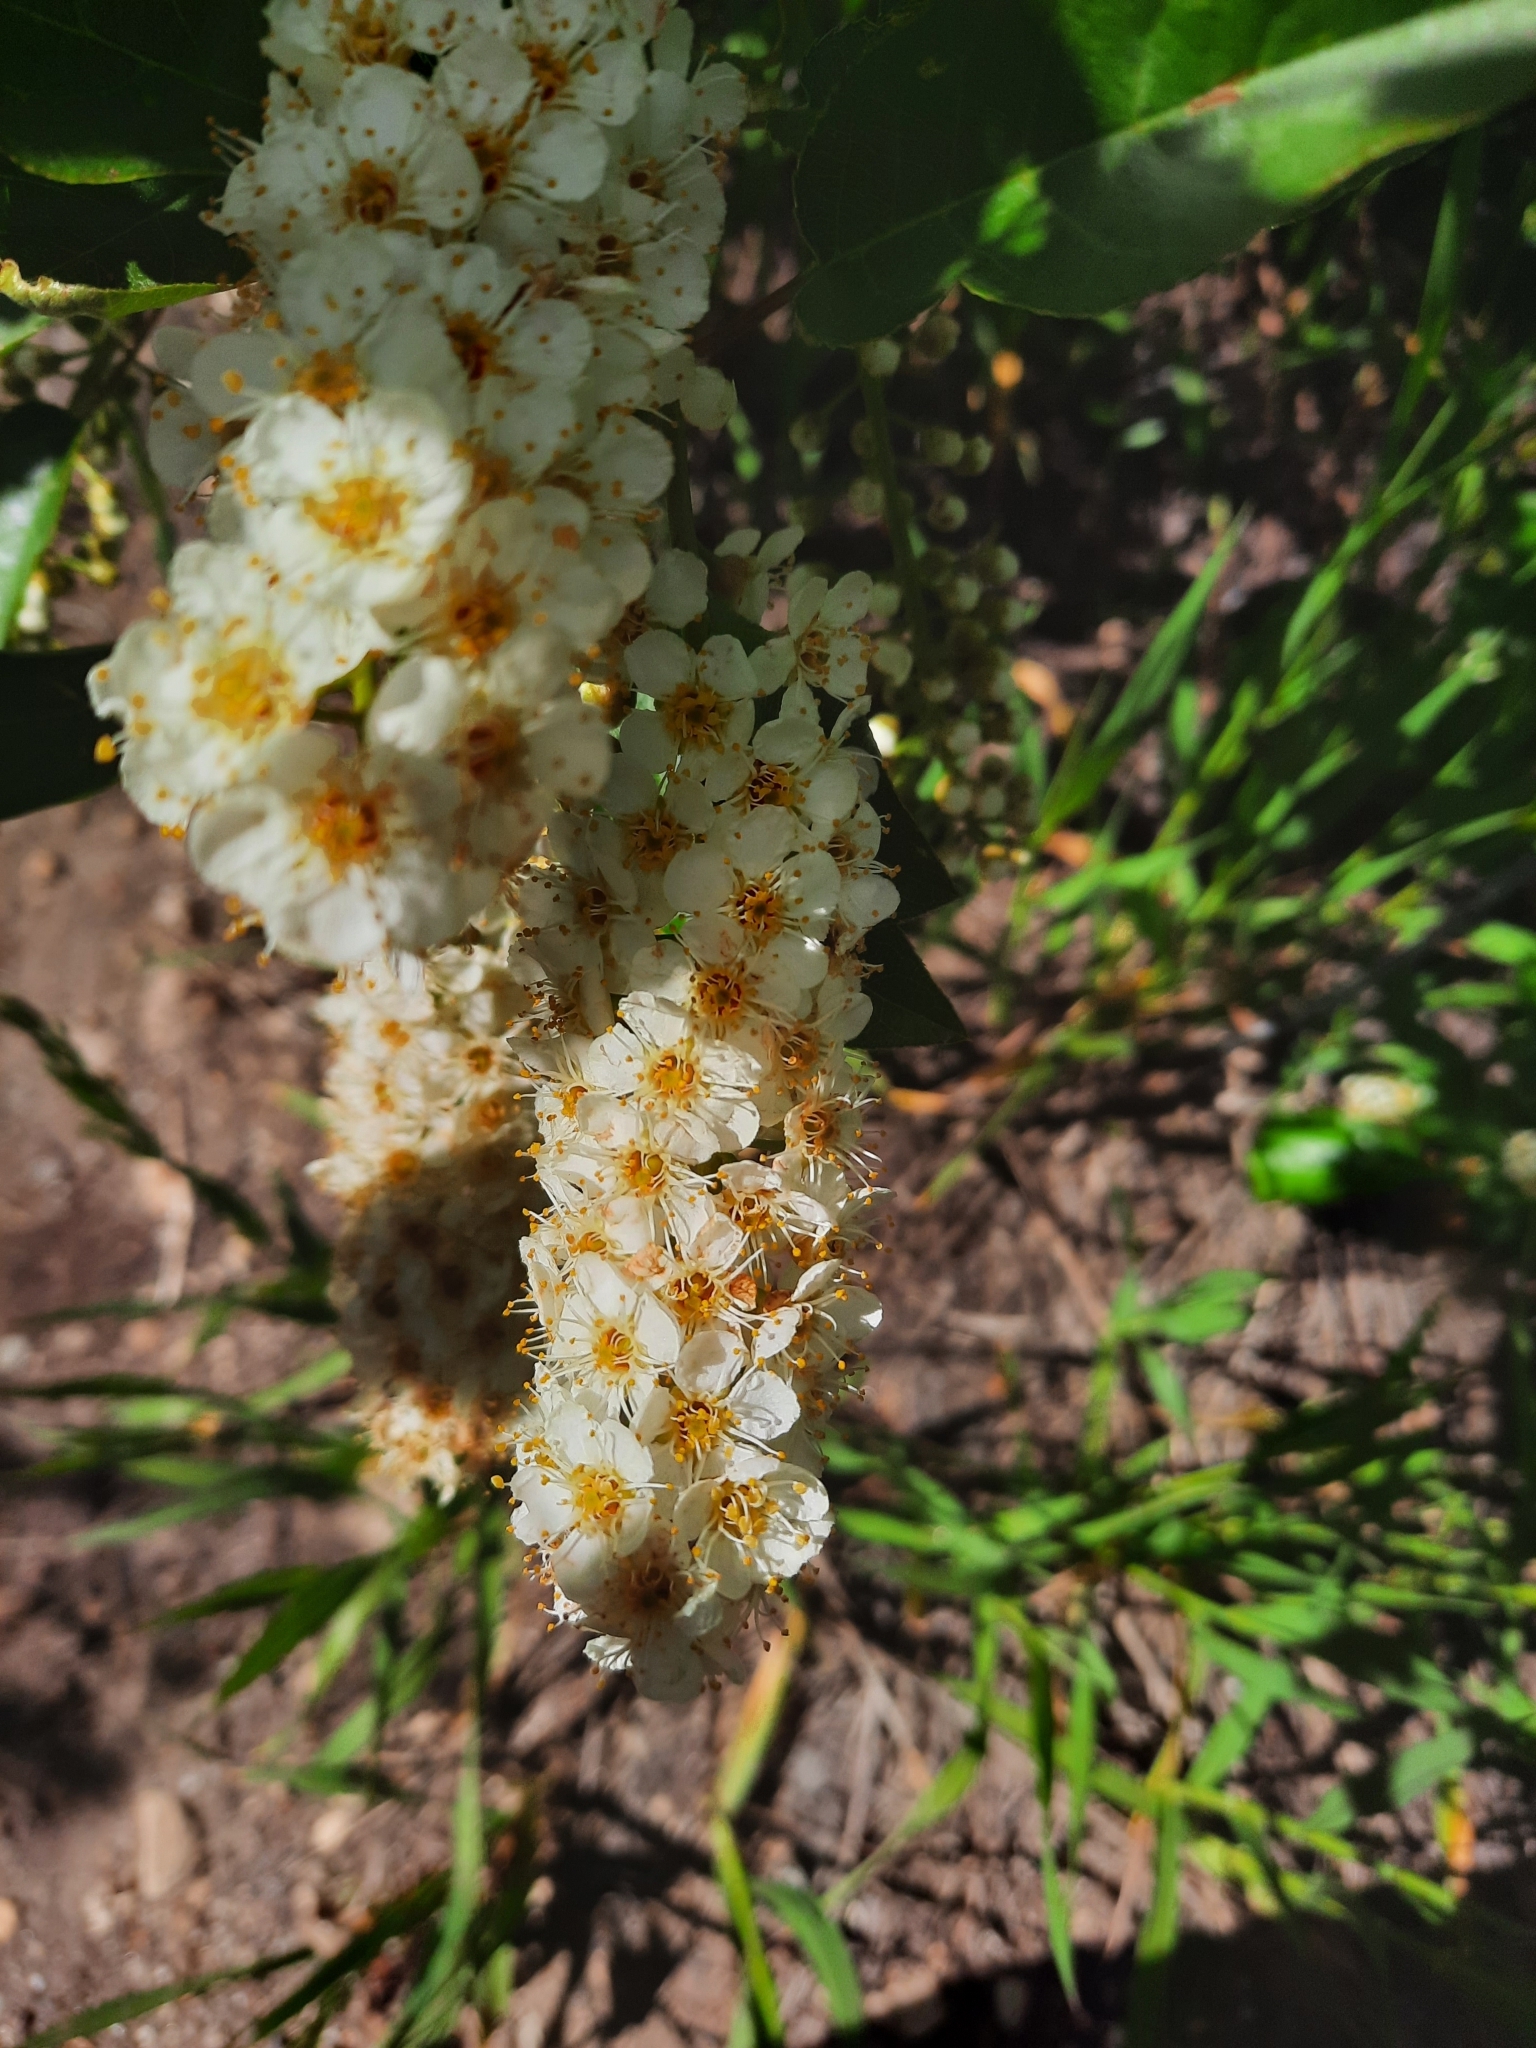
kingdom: Plantae
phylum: Tracheophyta
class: Magnoliopsida
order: Rosales
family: Rosaceae
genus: Prunus
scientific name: Prunus virginiana
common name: Chokecherry
